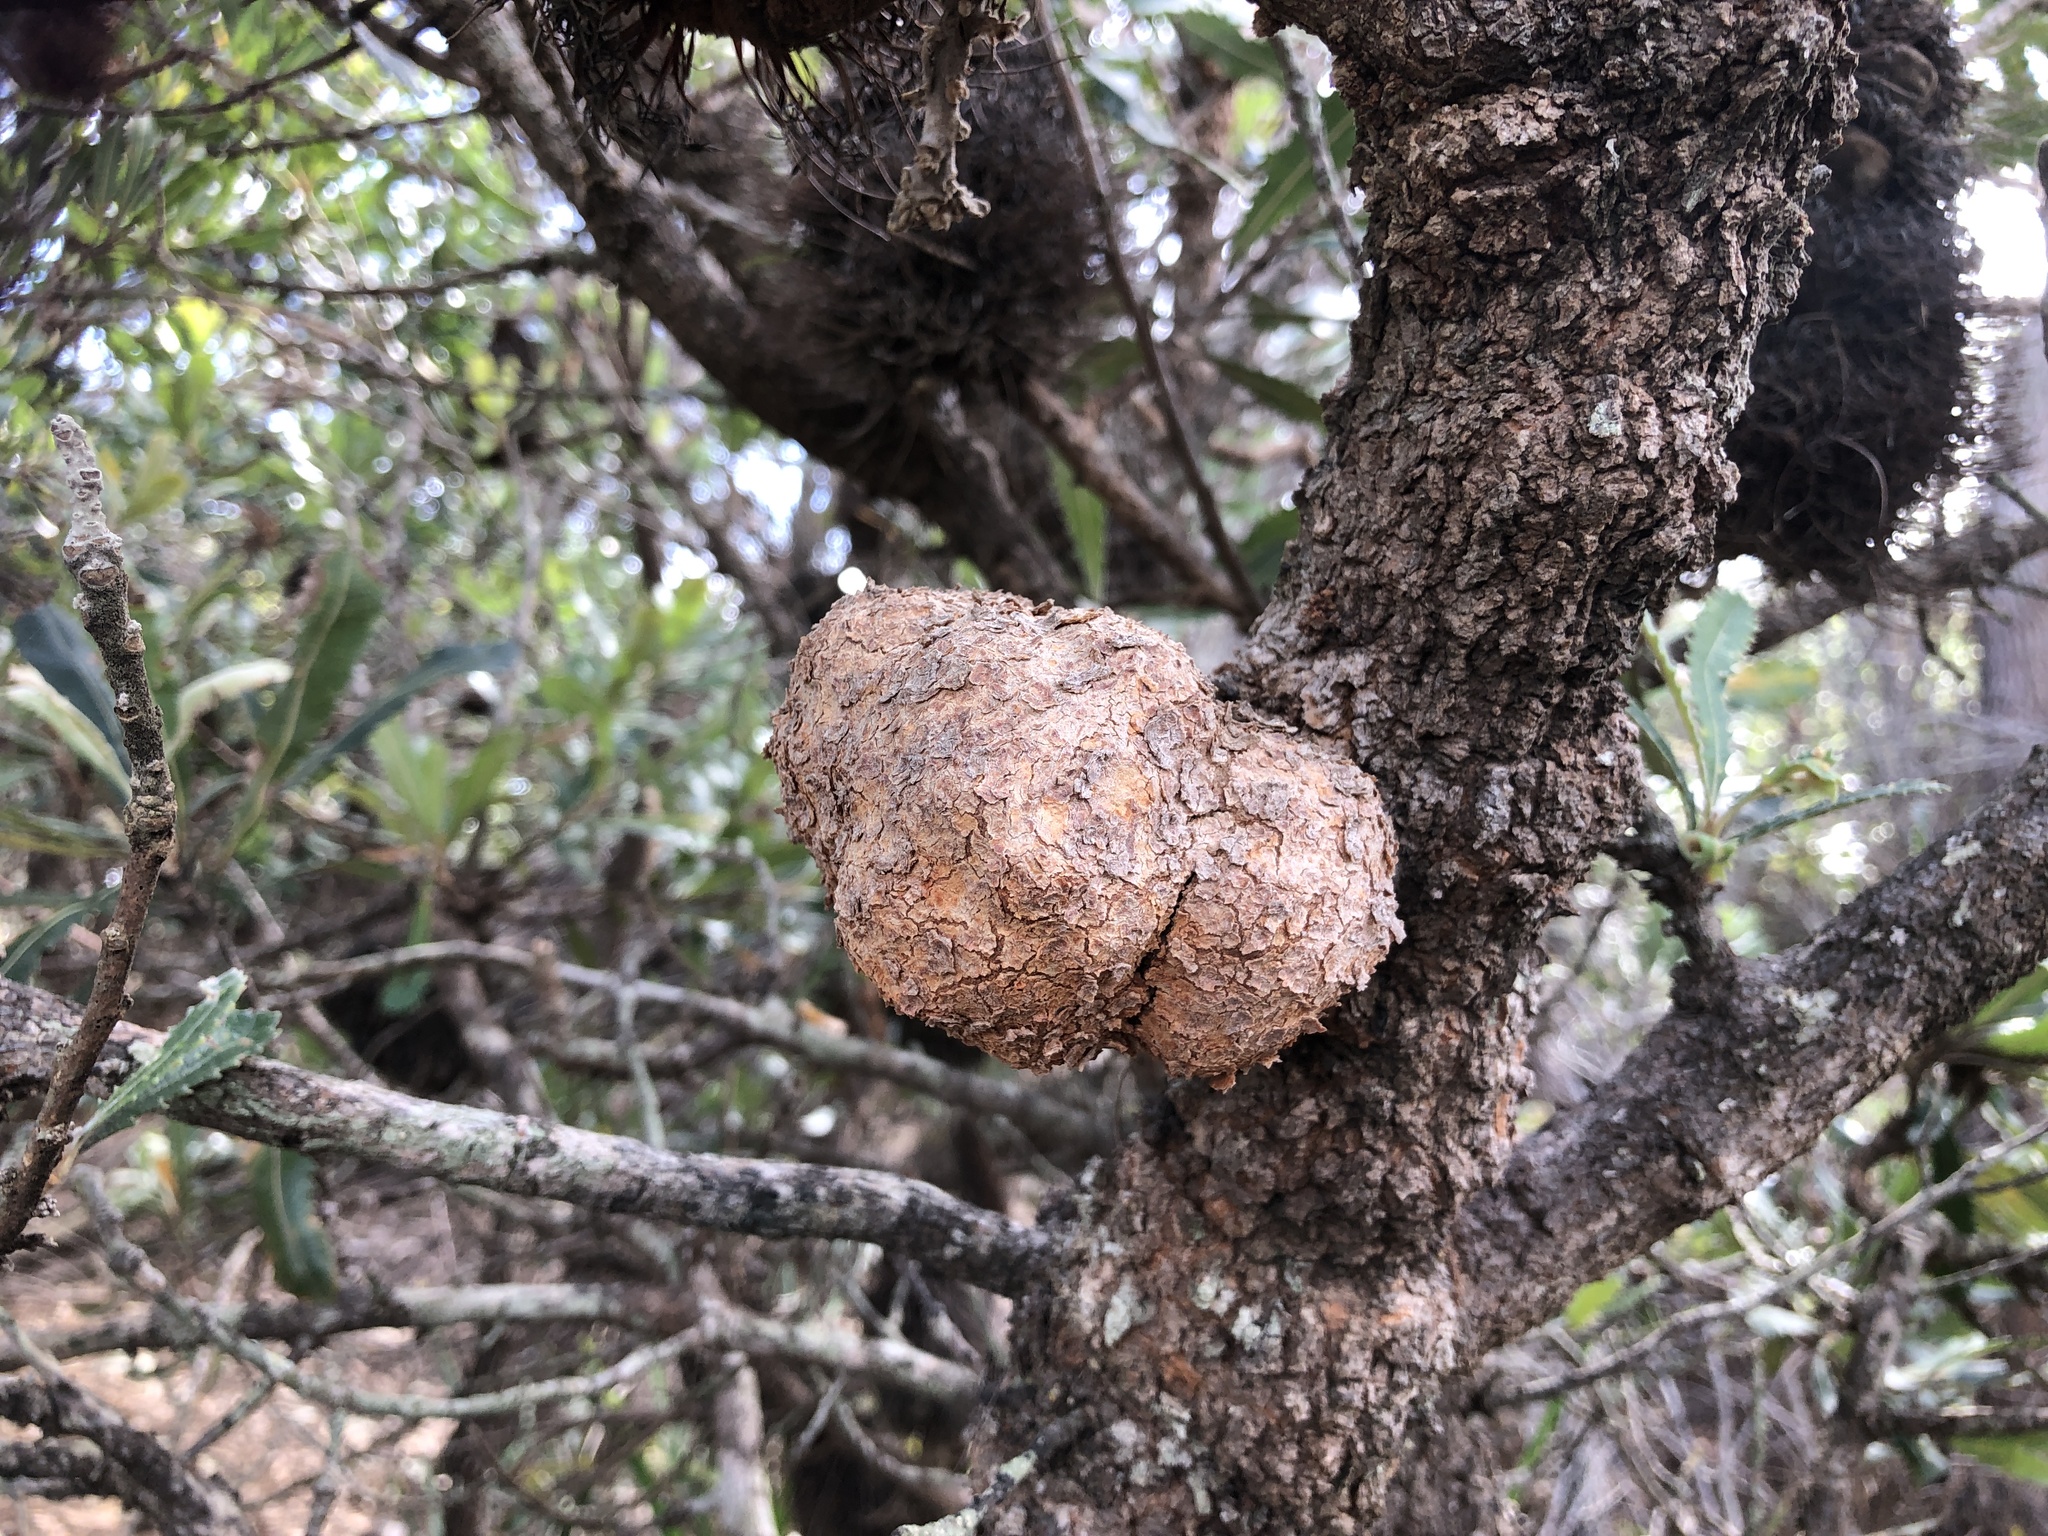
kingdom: Plantae
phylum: Tracheophyta
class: Magnoliopsida
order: Proteales
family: Proteaceae
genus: Banksia
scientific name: Banksia serrata
